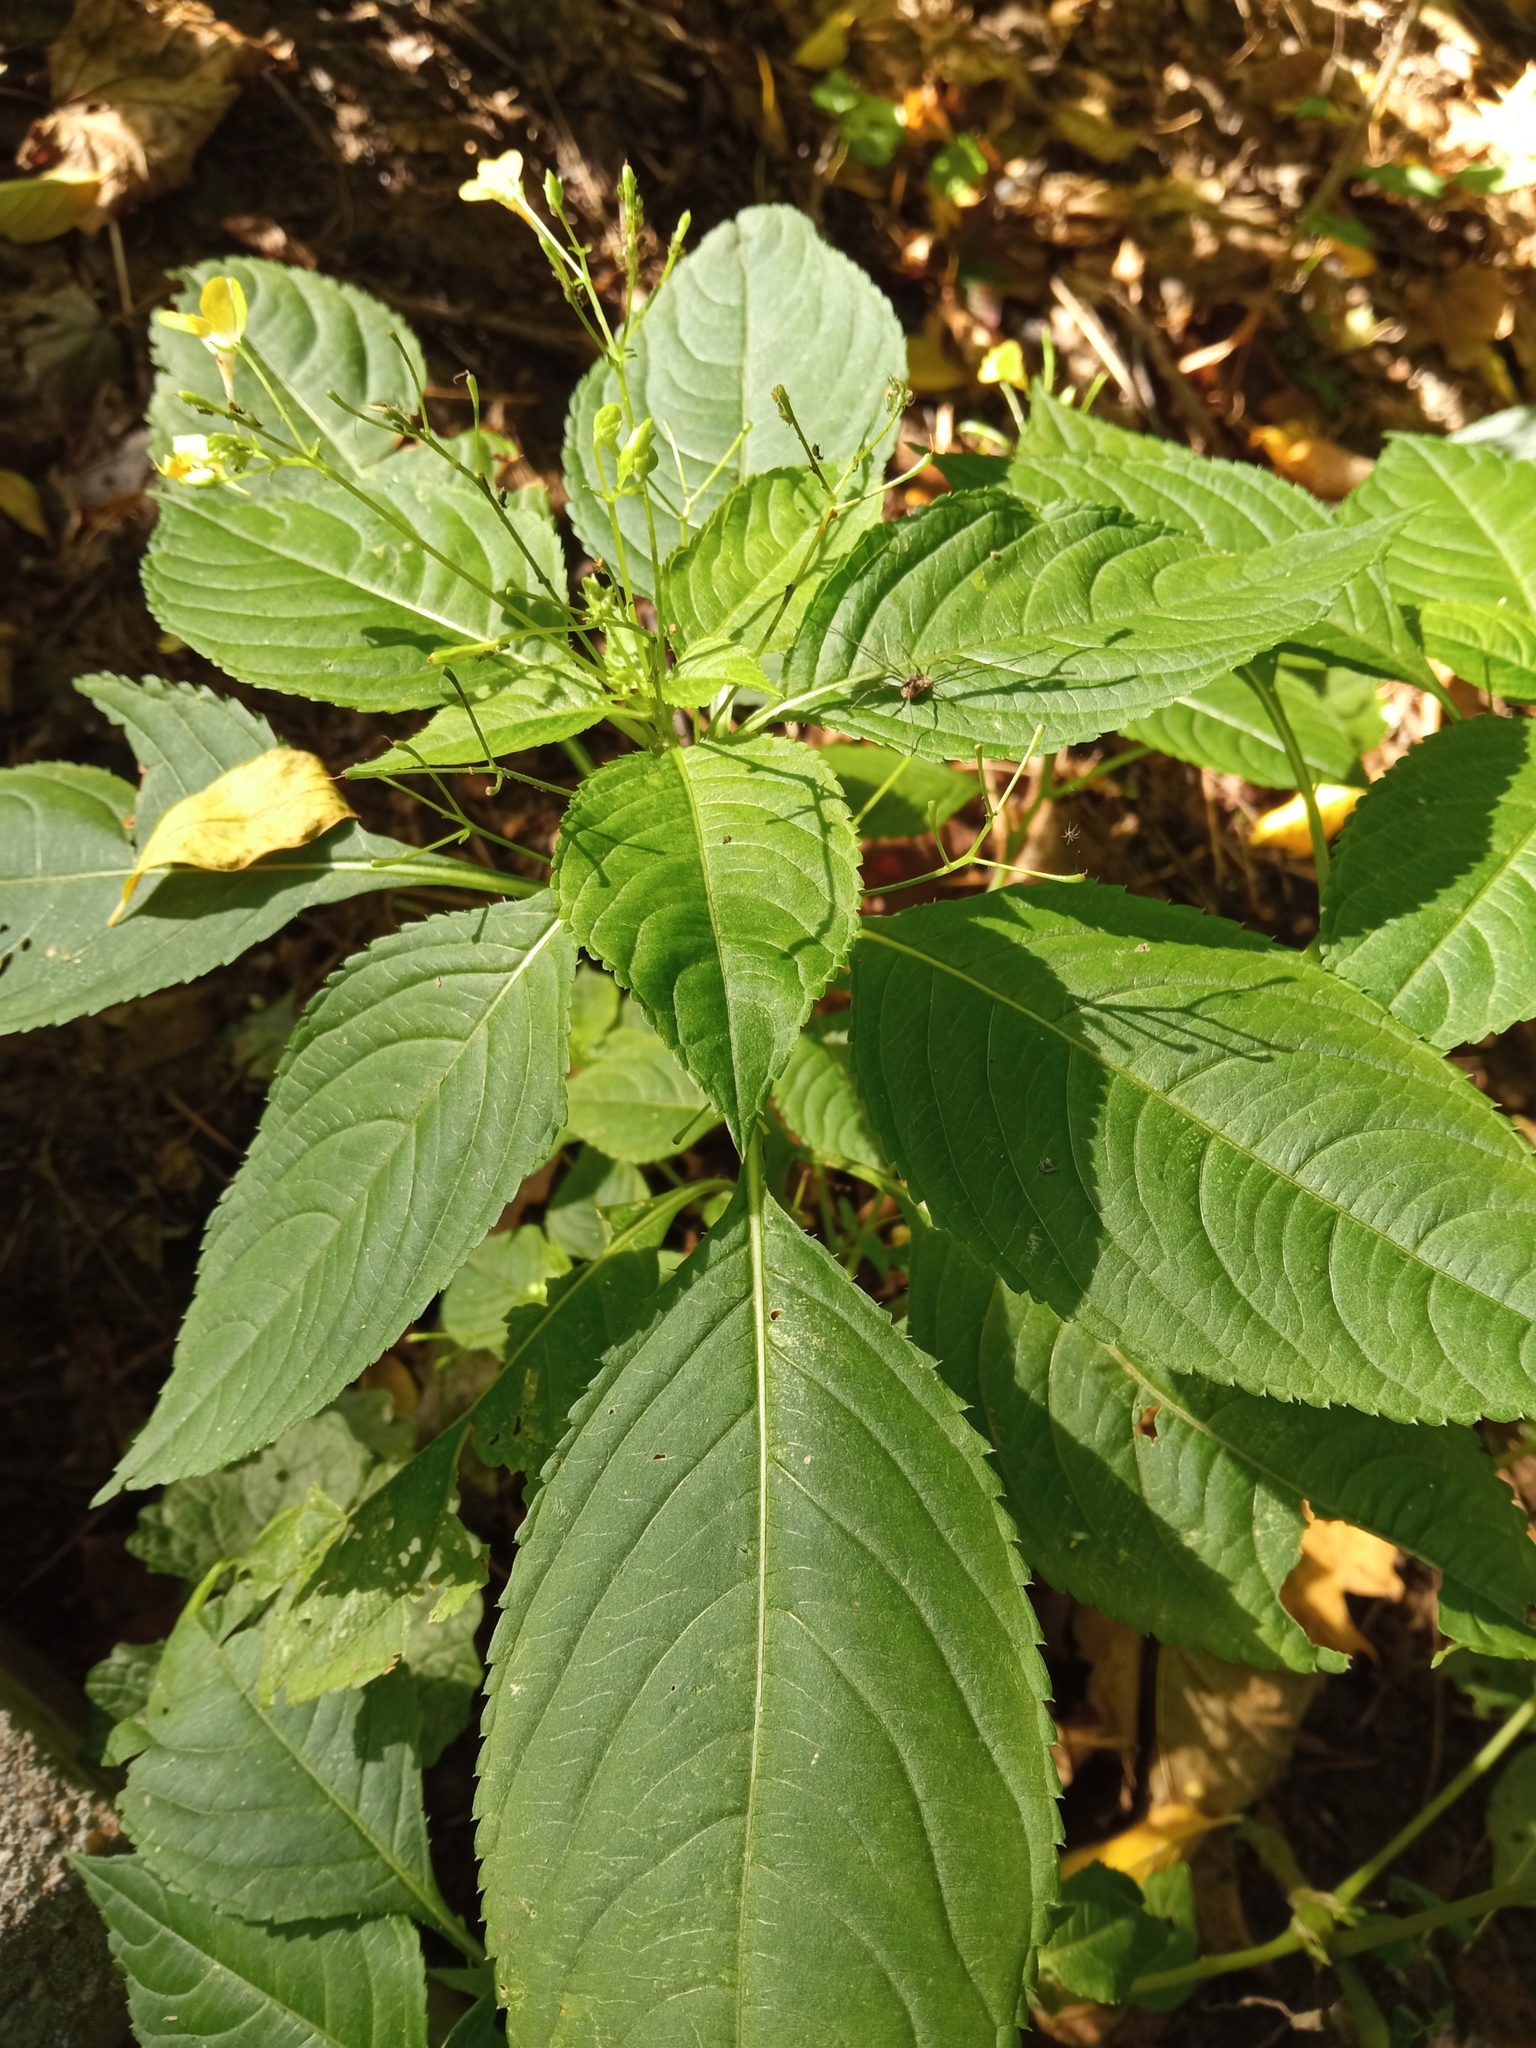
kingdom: Plantae
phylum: Tracheophyta
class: Magnoliopsida
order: Ericales
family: Balsaminaceae
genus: Impatiens
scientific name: Impatiens parviflora
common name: Small balsam
